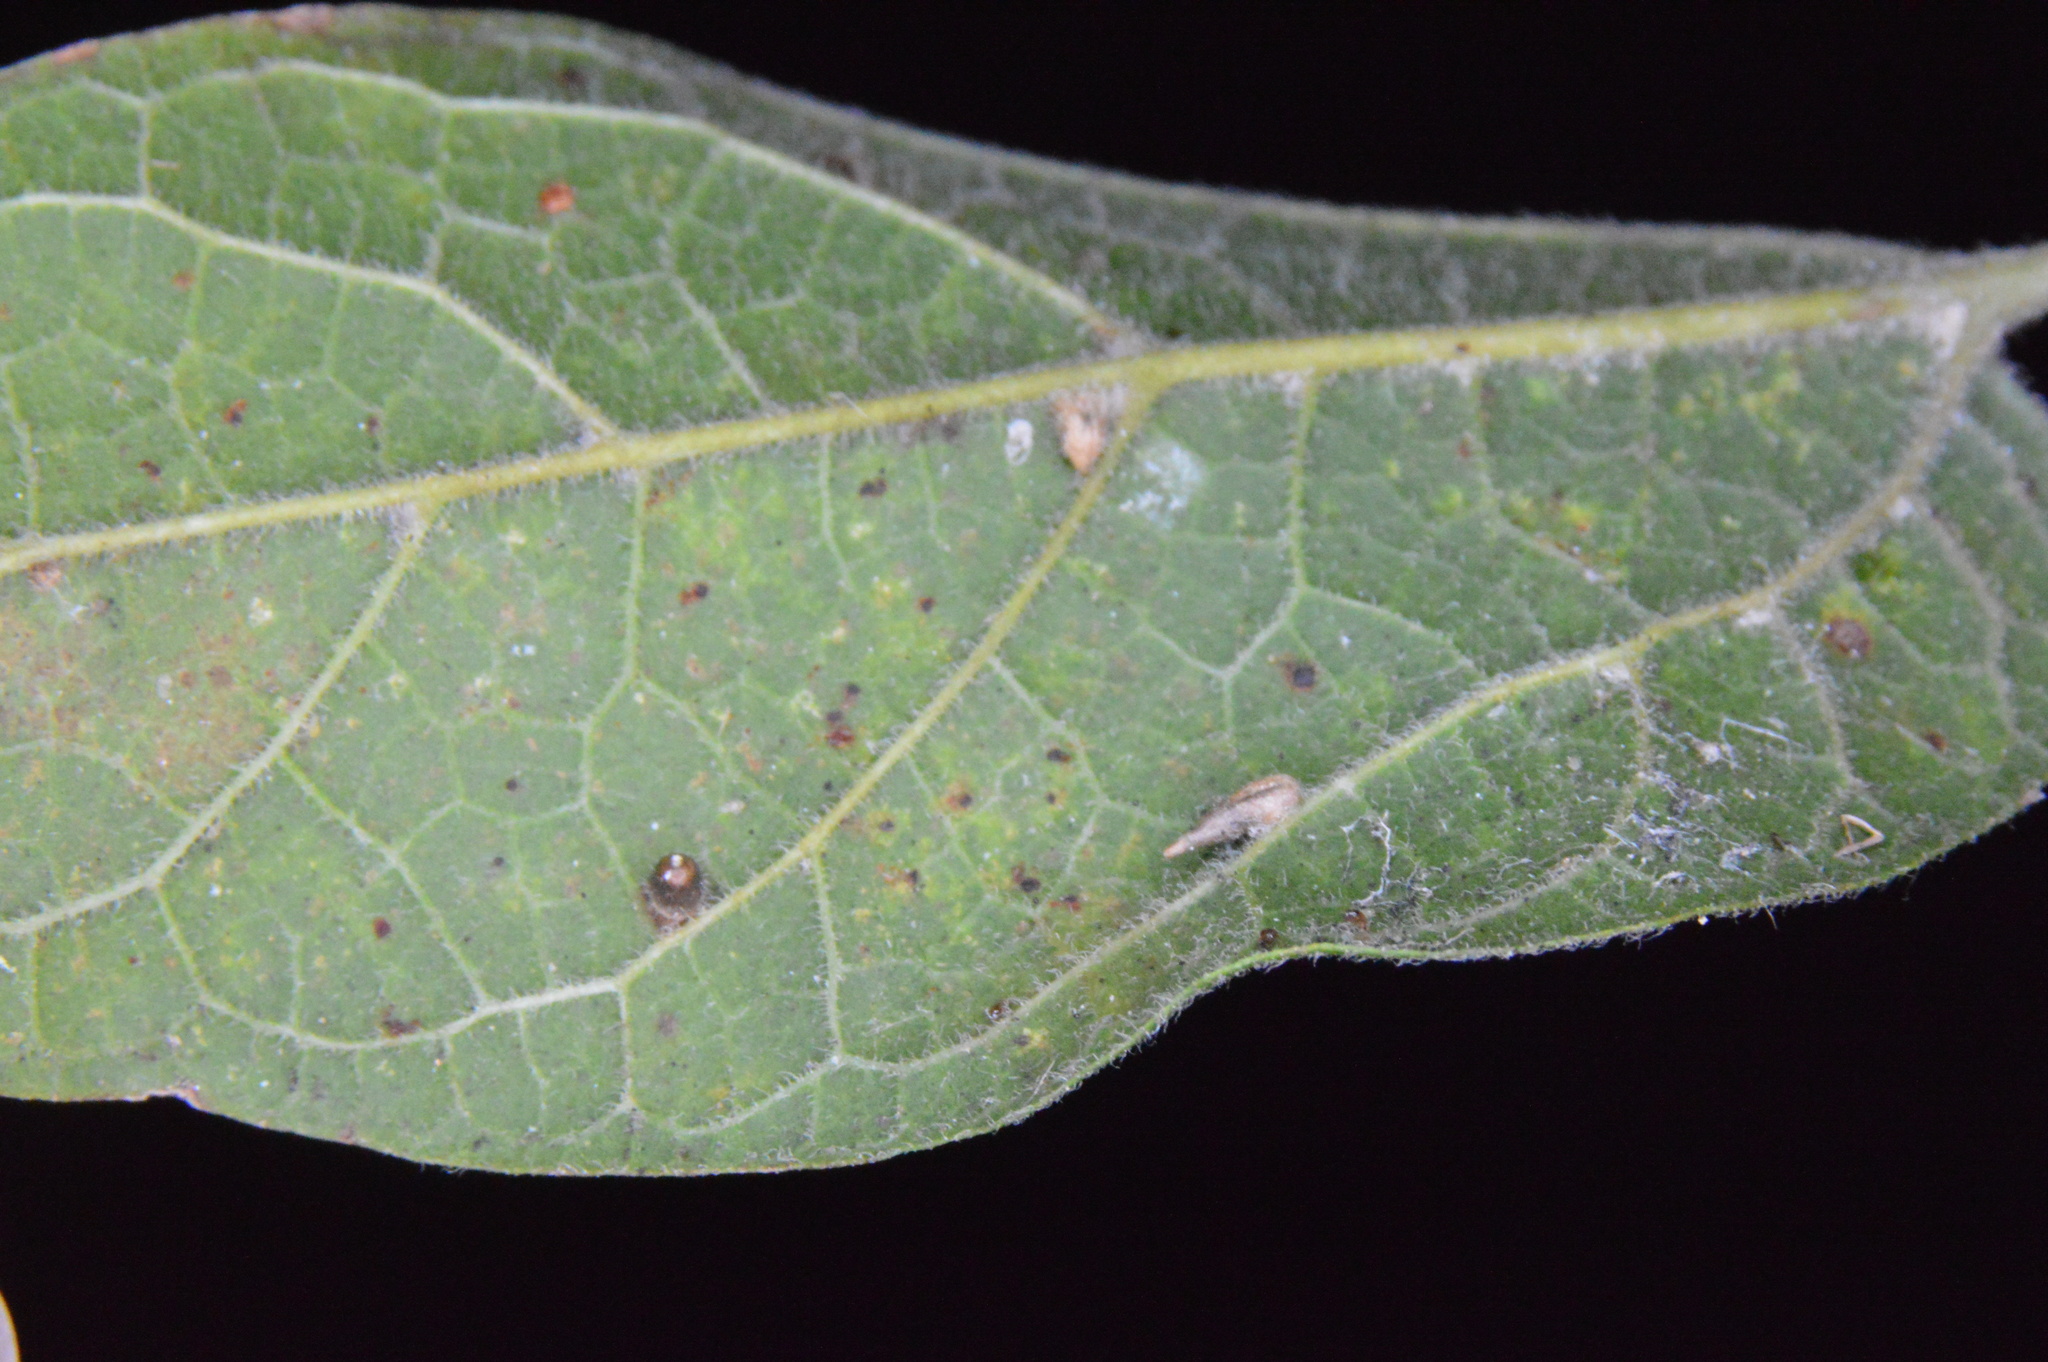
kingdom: Animalia
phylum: Arthropoda
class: Insecta
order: Diptera
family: Cecidomyiidae
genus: Celticecis
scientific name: Celticecis cupiformis
